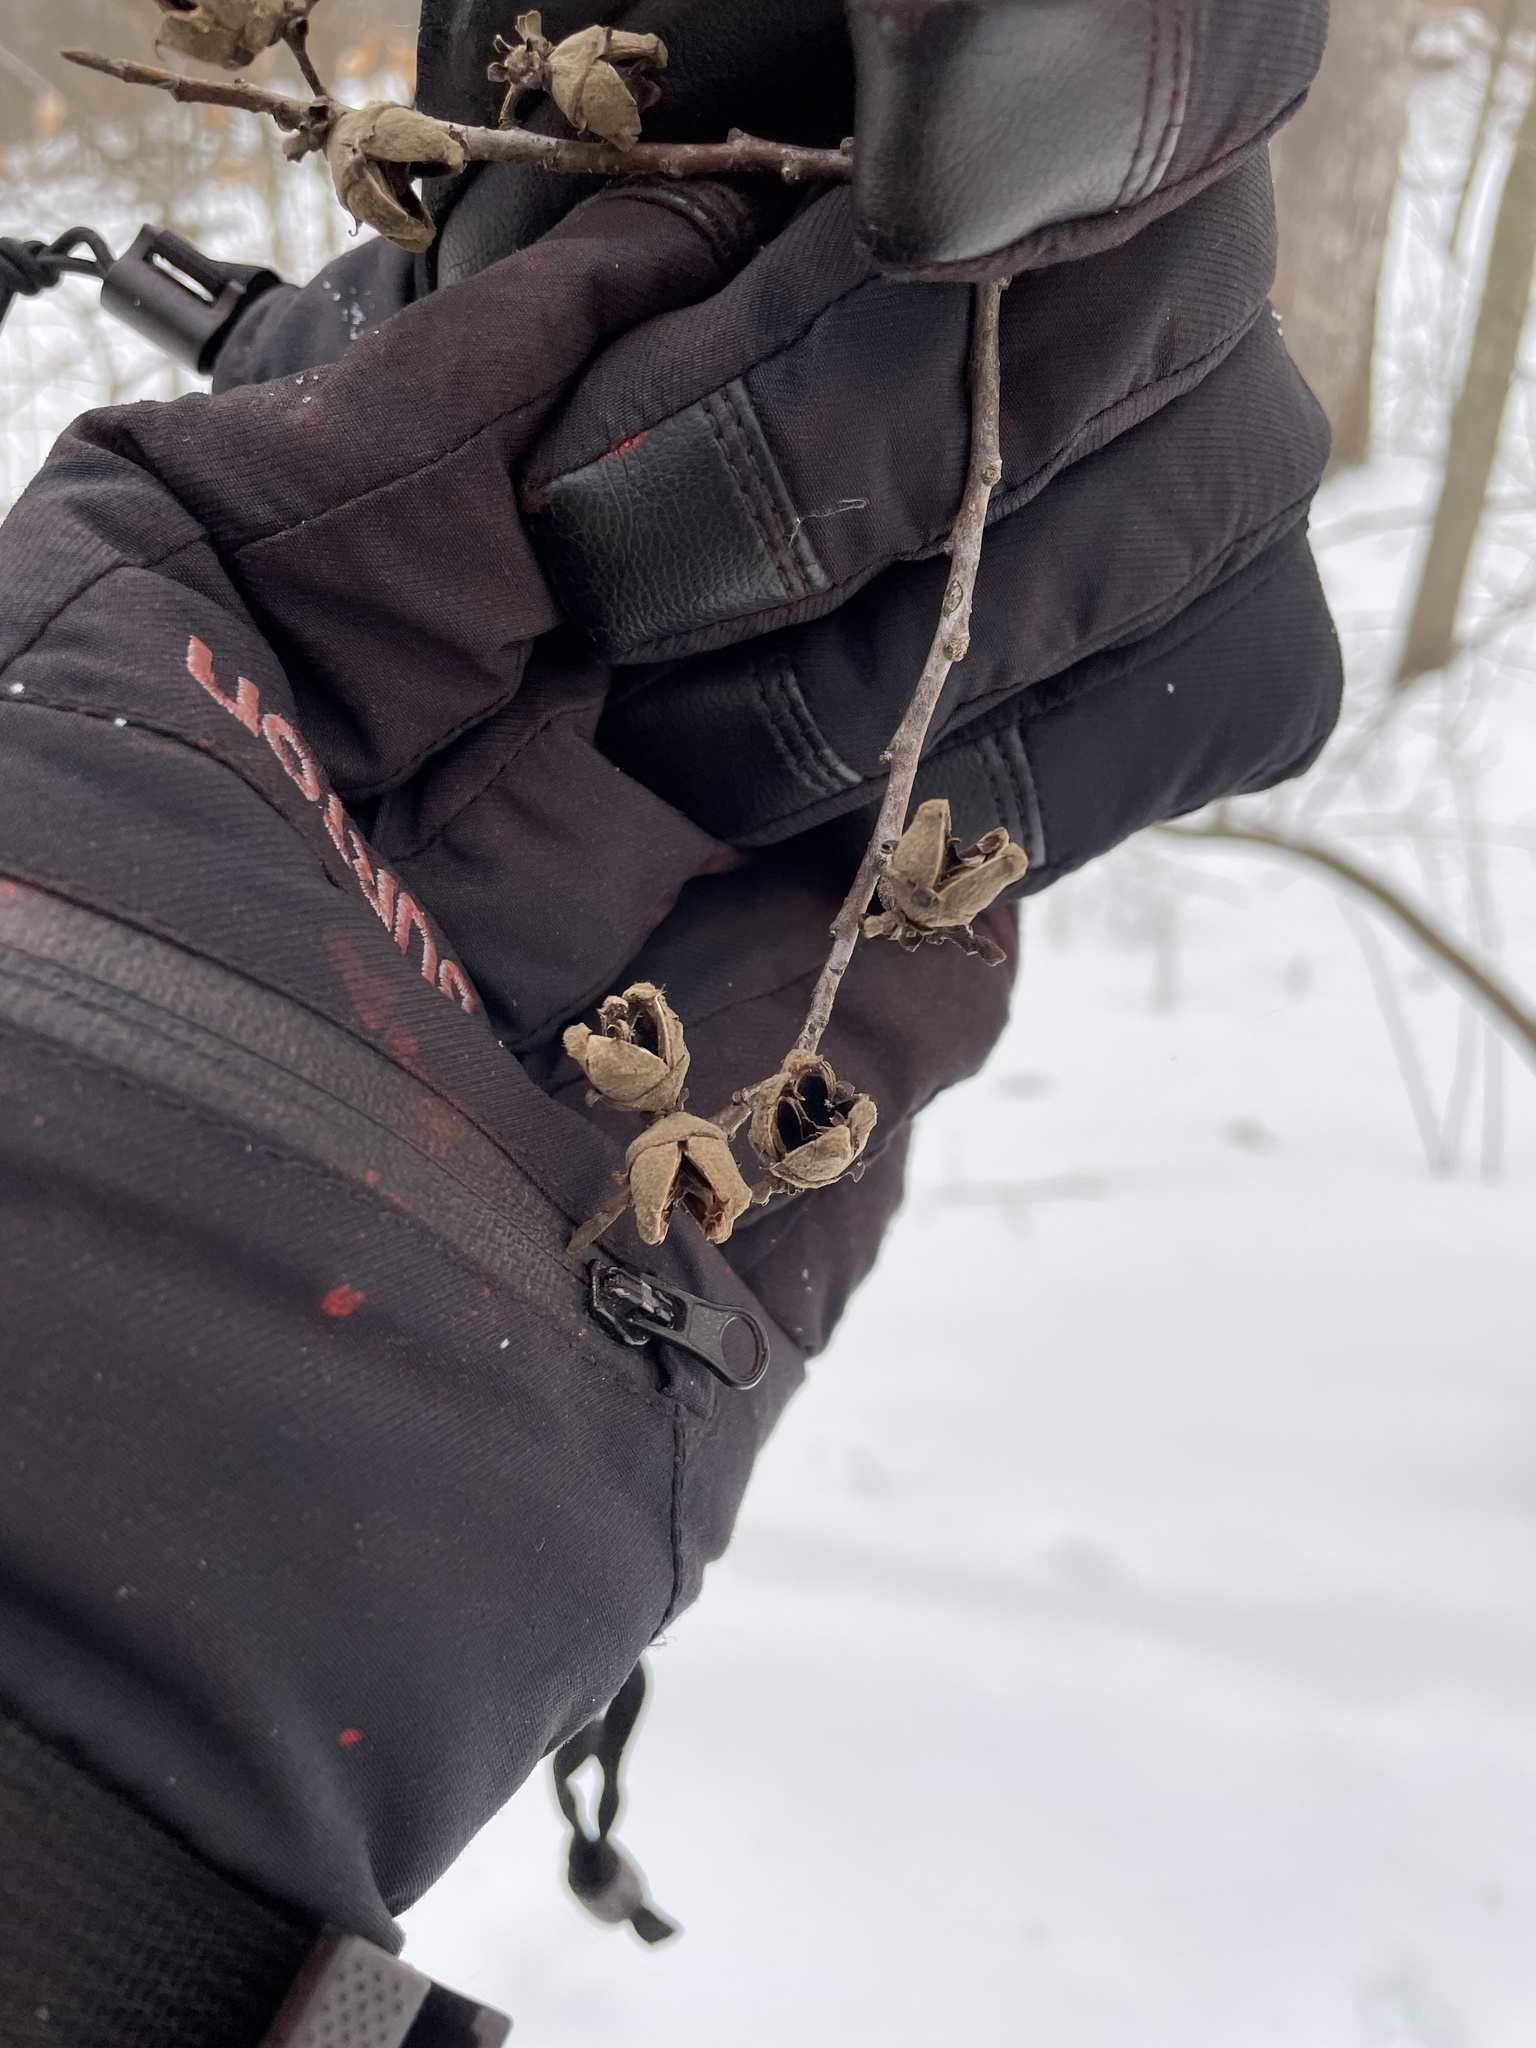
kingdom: Plantae
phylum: Tracheophyta
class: Magnoliopsida
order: Saxifragales
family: Hamamelidaceae
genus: Hamamelis
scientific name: Hamamelis virginiana
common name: Witch-hazel
